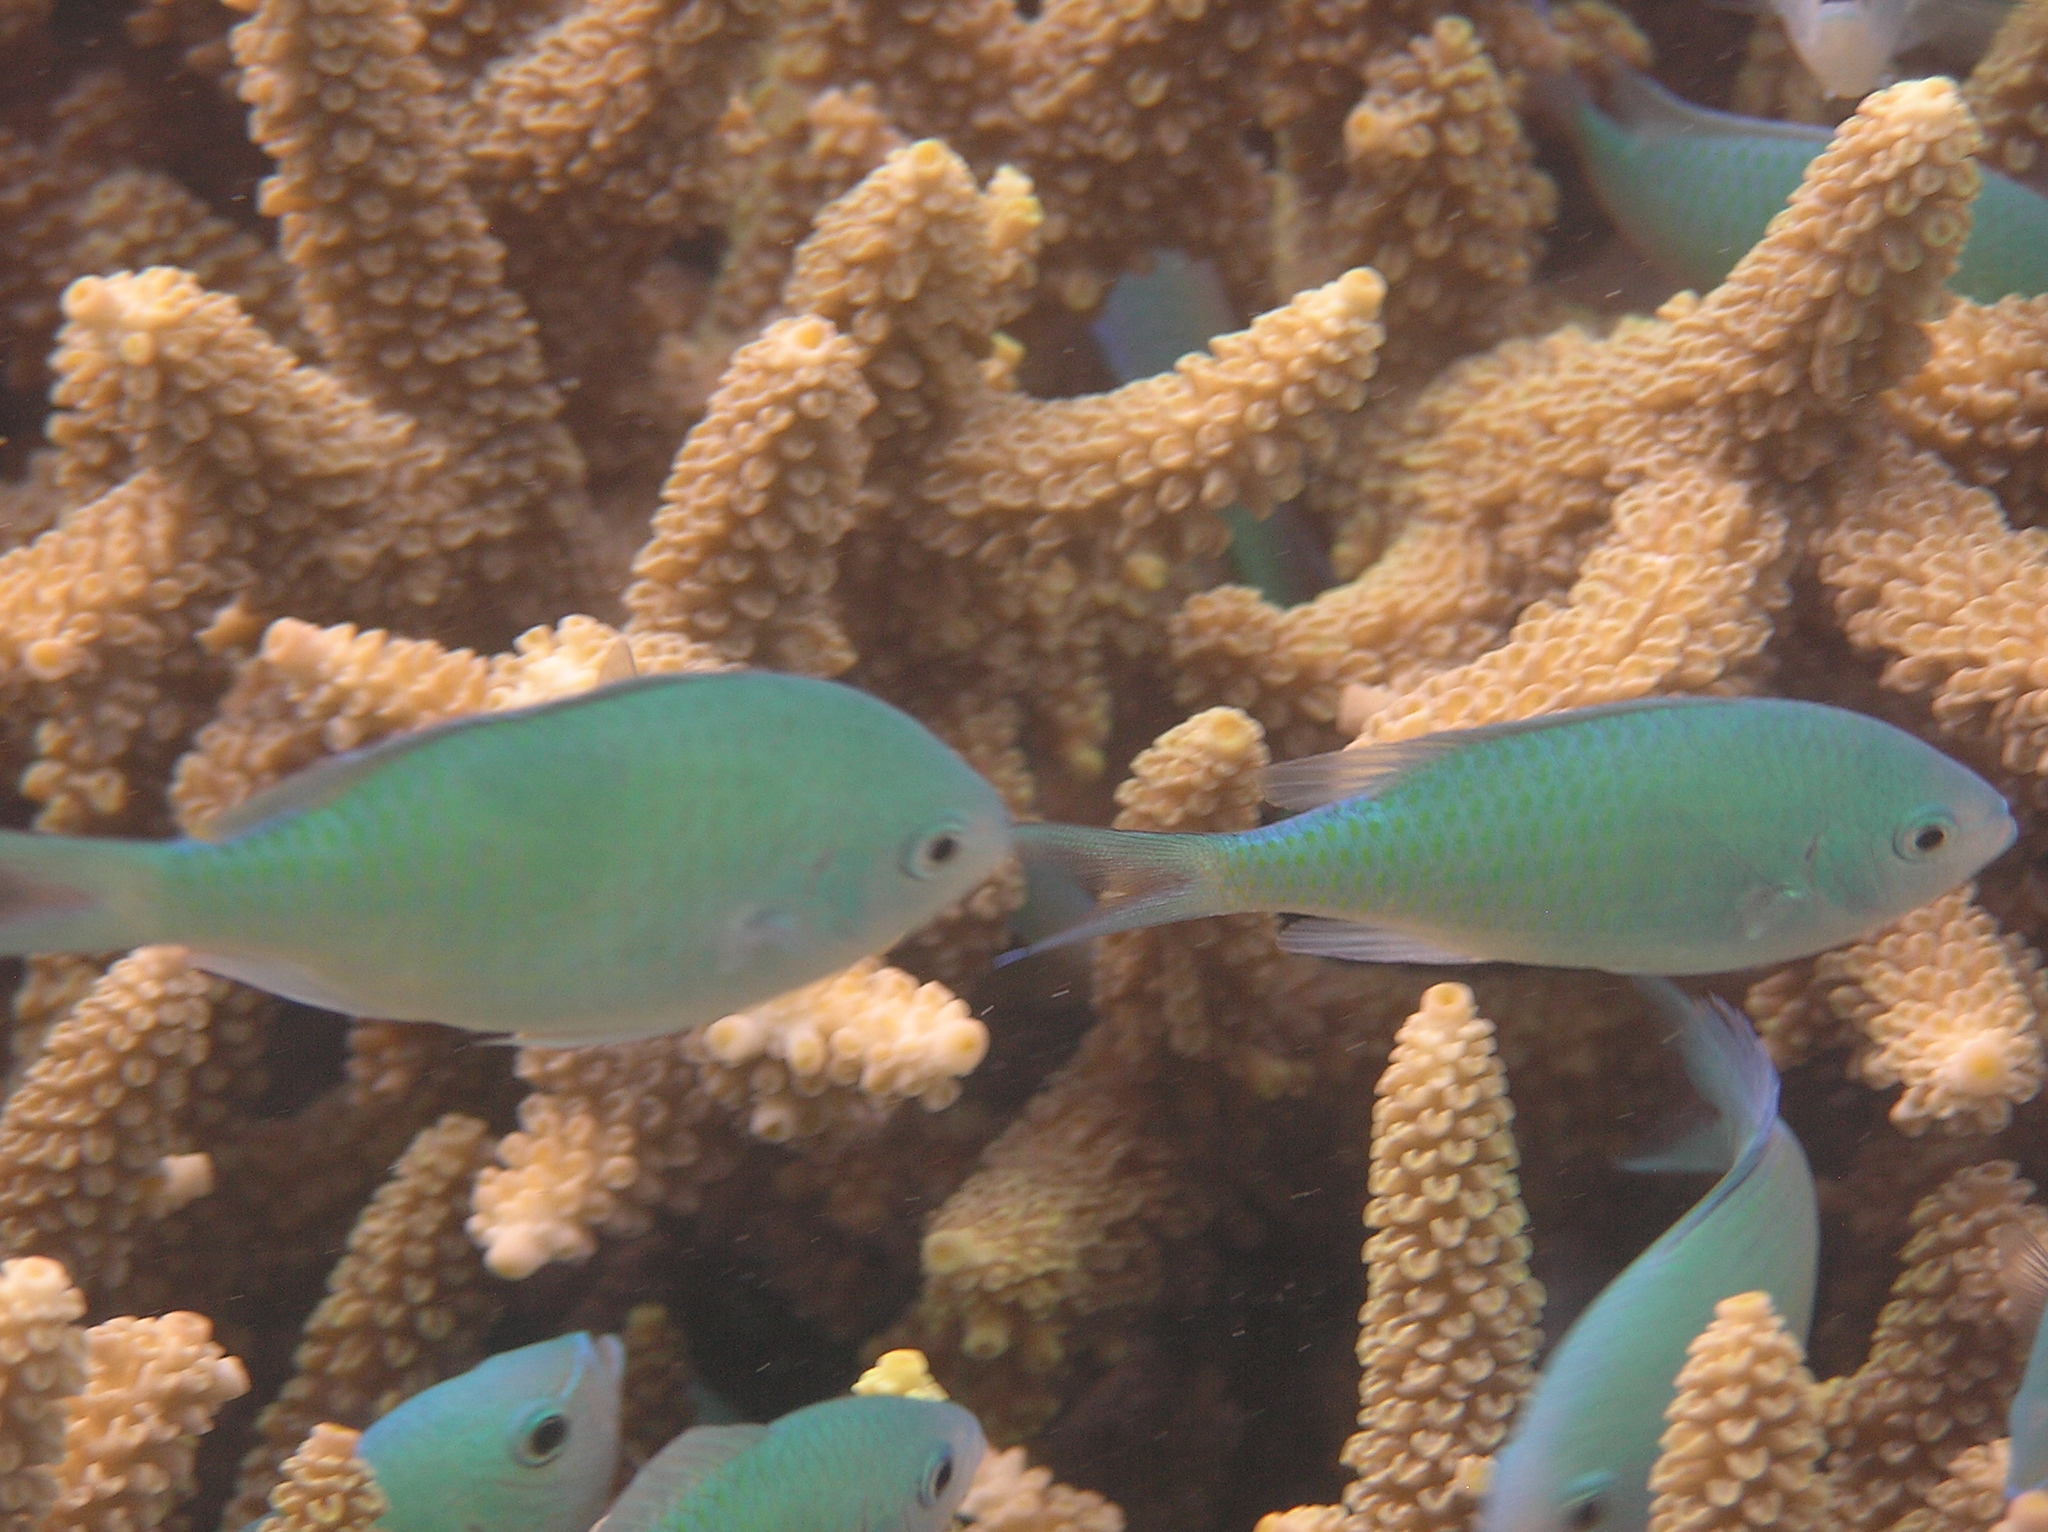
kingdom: Animalia
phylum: Chordata
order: Perciformes
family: Pomacentridae
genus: Chromis
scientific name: Chromis viridis
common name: Blue-green chromis
